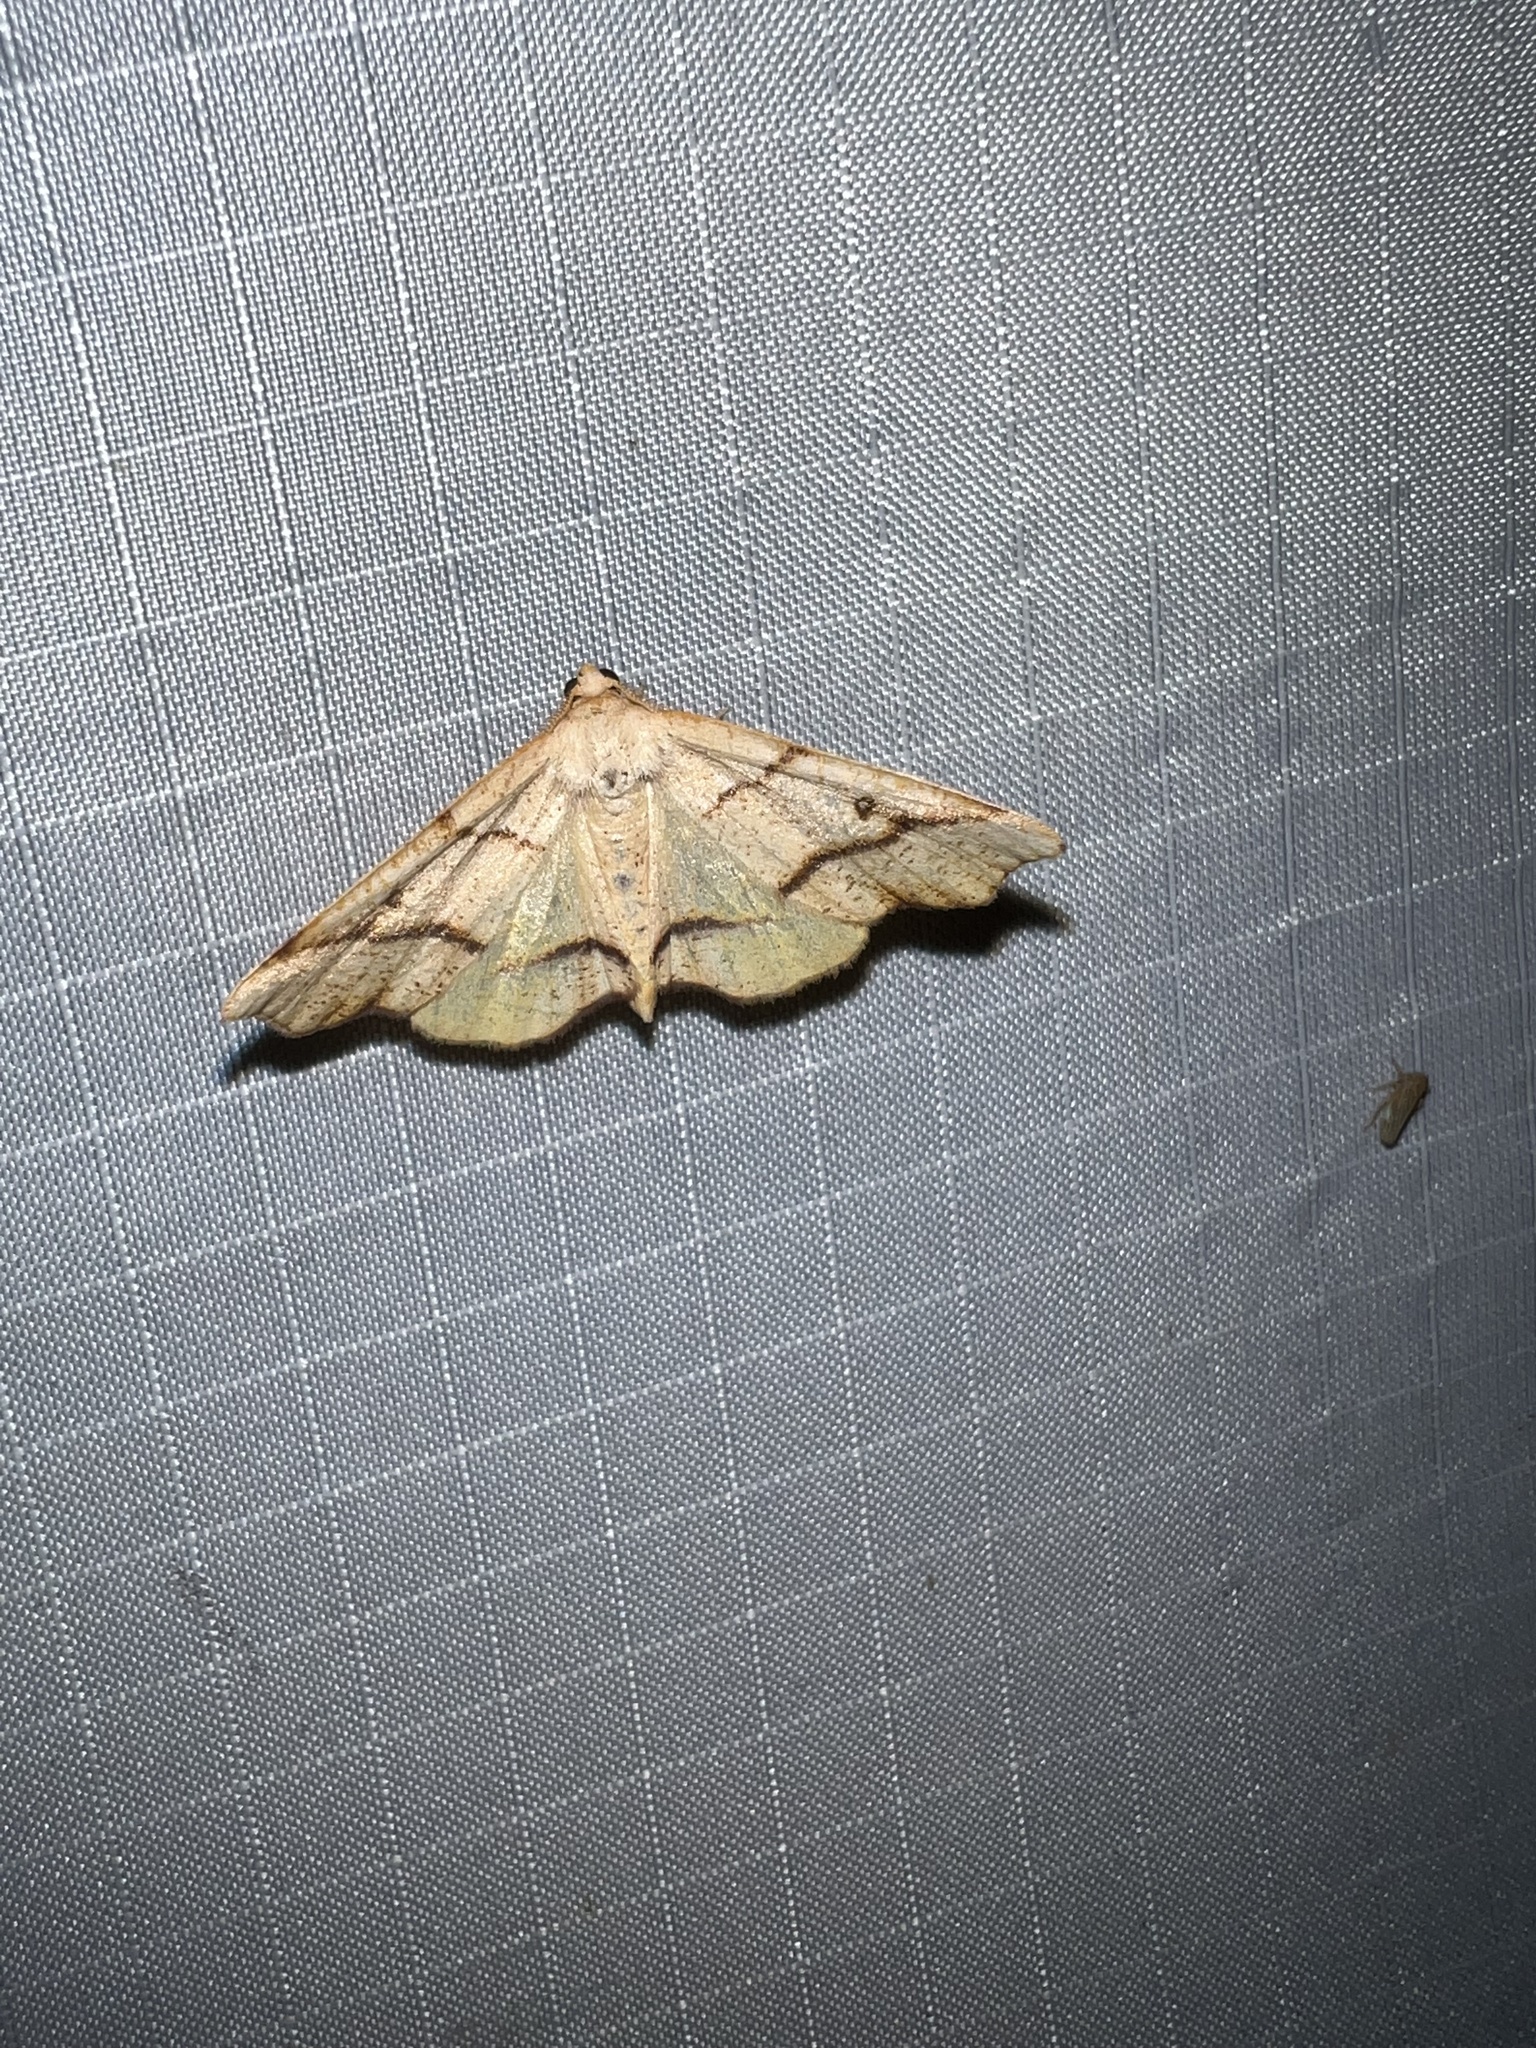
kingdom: Animalia
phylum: Arthropoda
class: Insecta
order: Lepidoptera
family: Geometridae
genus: Plagodis
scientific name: Plagodis alcoolaria
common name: Hollow-spotted plagodis
